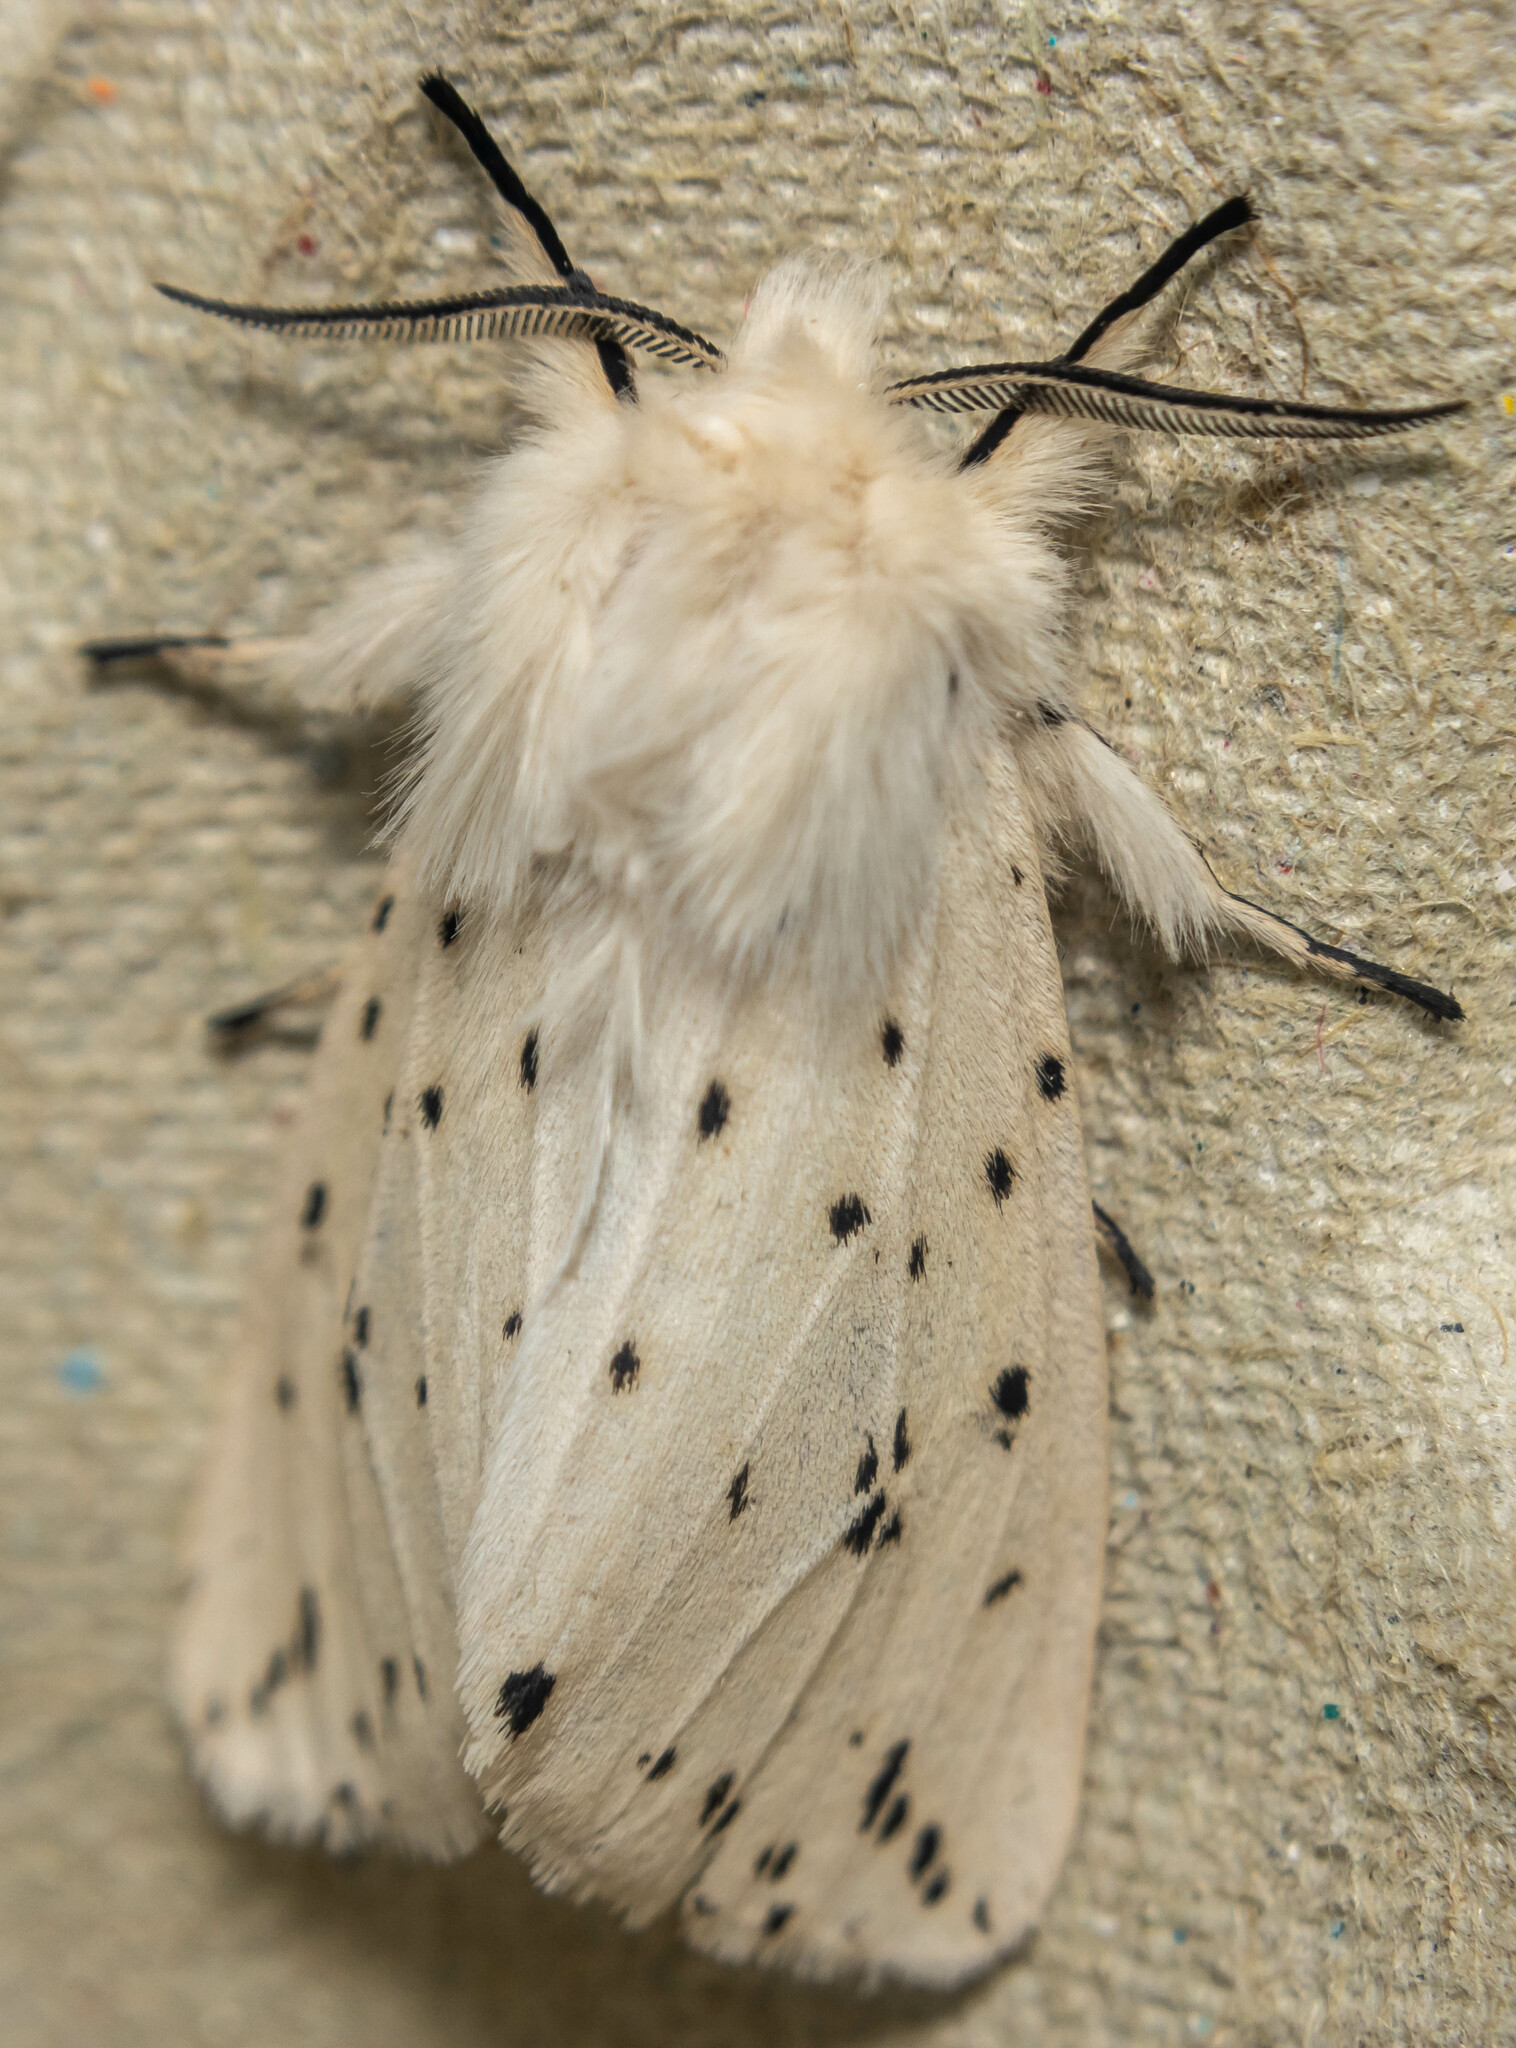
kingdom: Animalia
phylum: Arthropoda
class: Insecta
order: Lepidoptera
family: Erebidae
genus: Spilosoma
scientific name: Spilosoma lubricipeda
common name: White ermine
